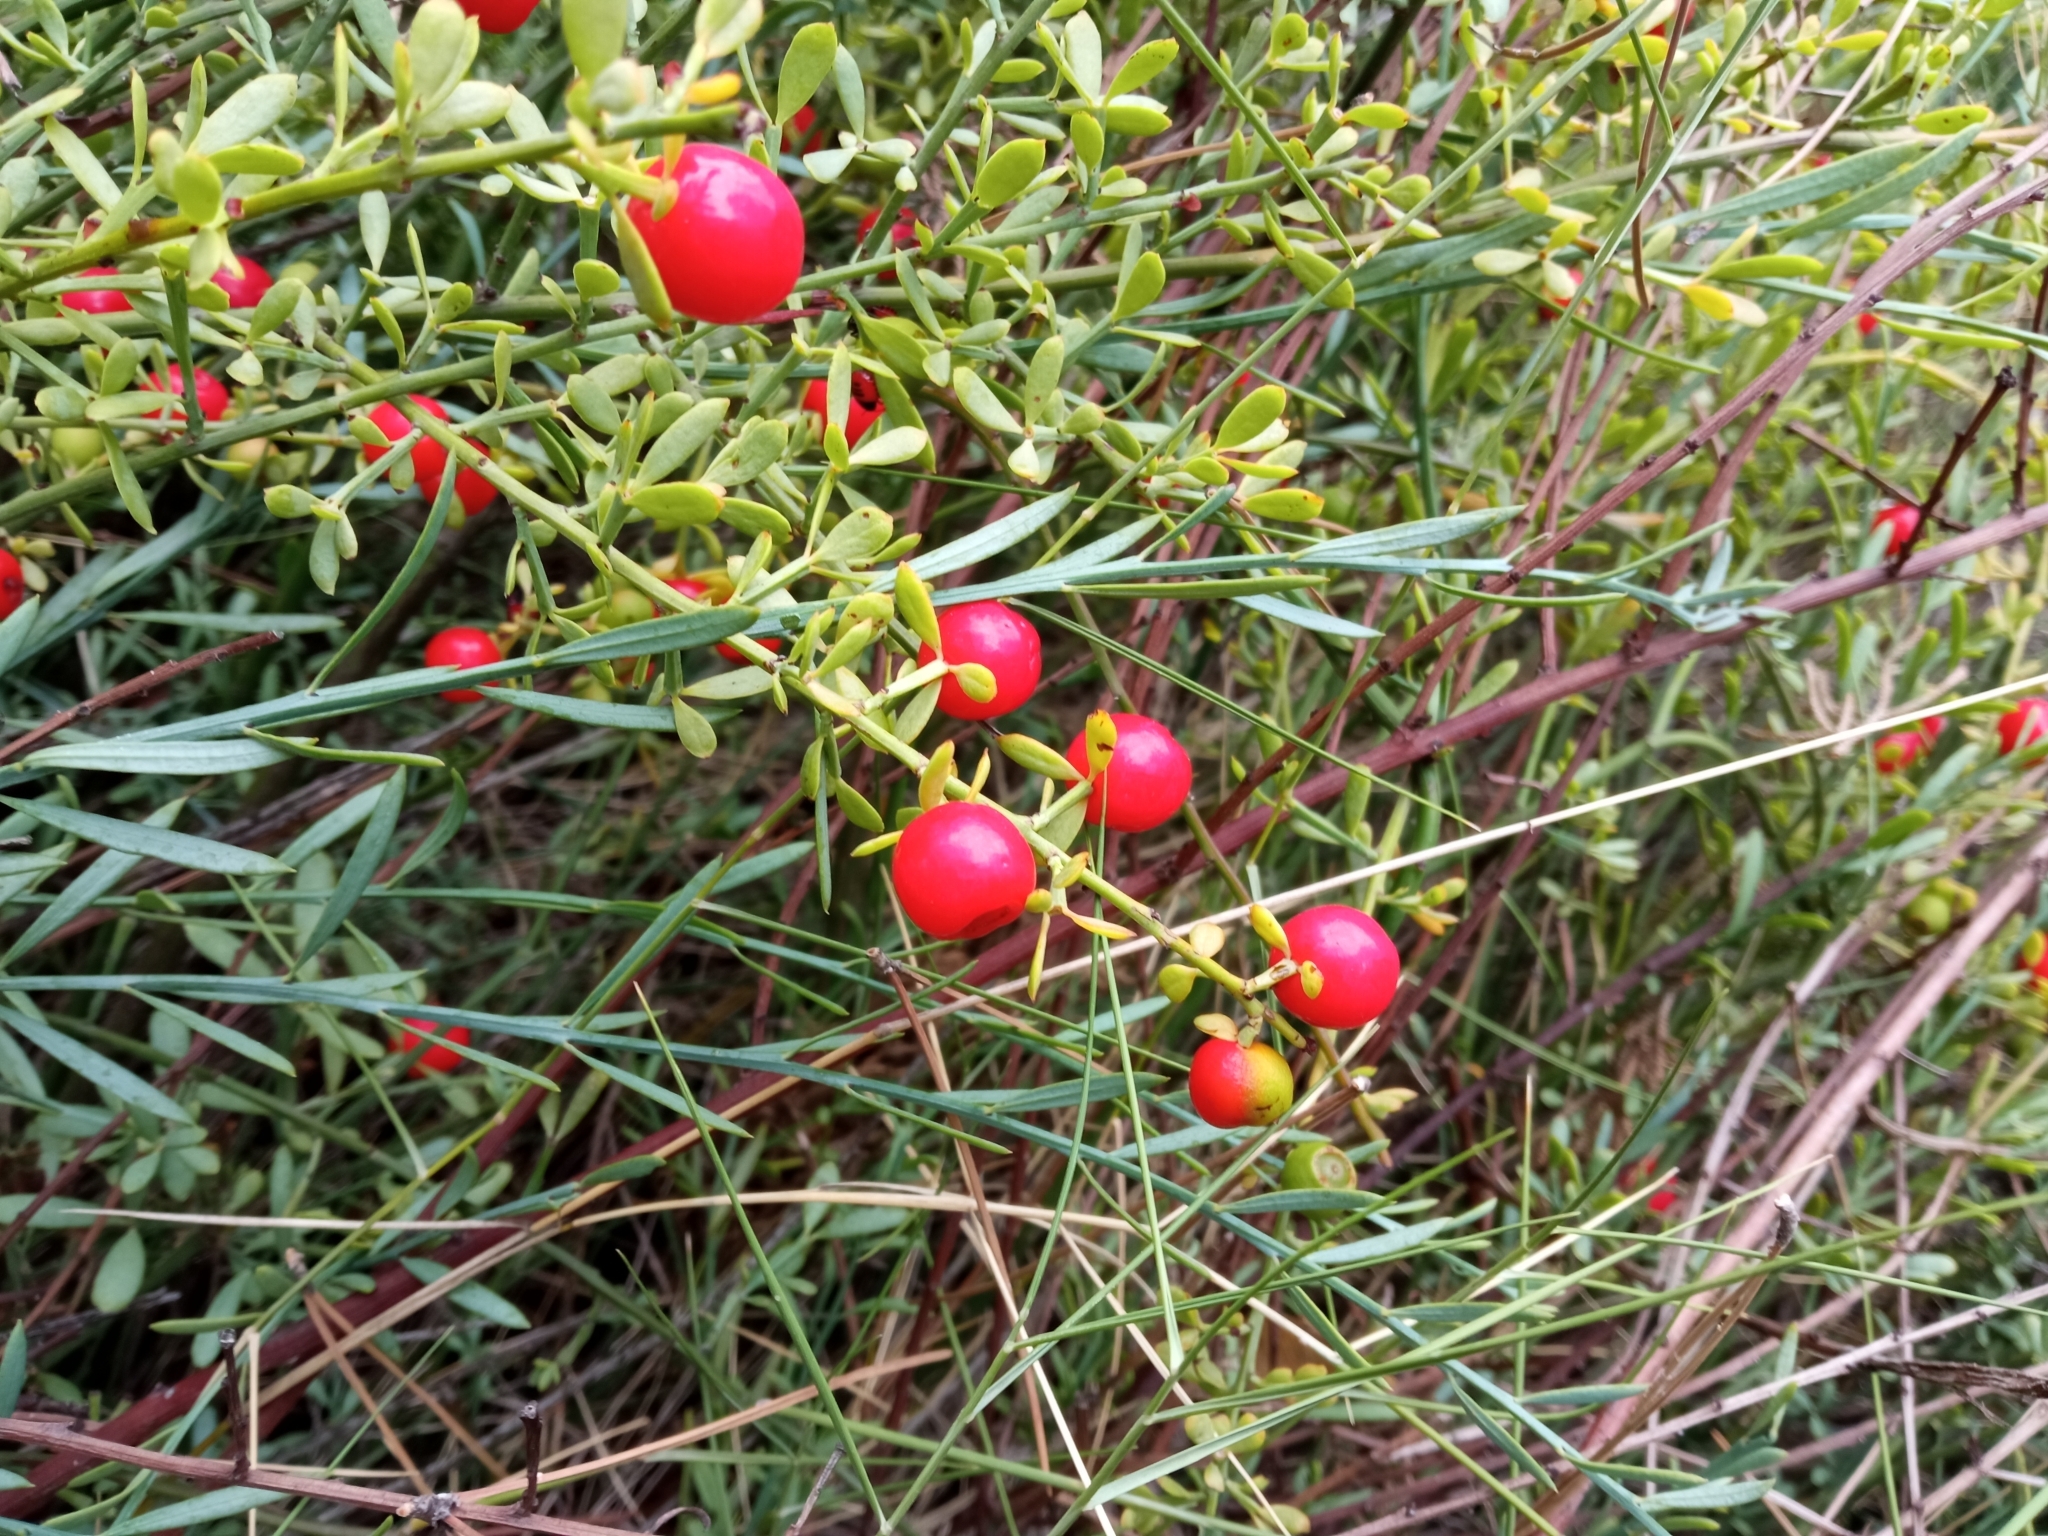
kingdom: Plantae
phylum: Tracheophyta
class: Magnoliopsida
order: Santalales
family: Santalaceae
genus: Osyris
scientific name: Osyris alba
